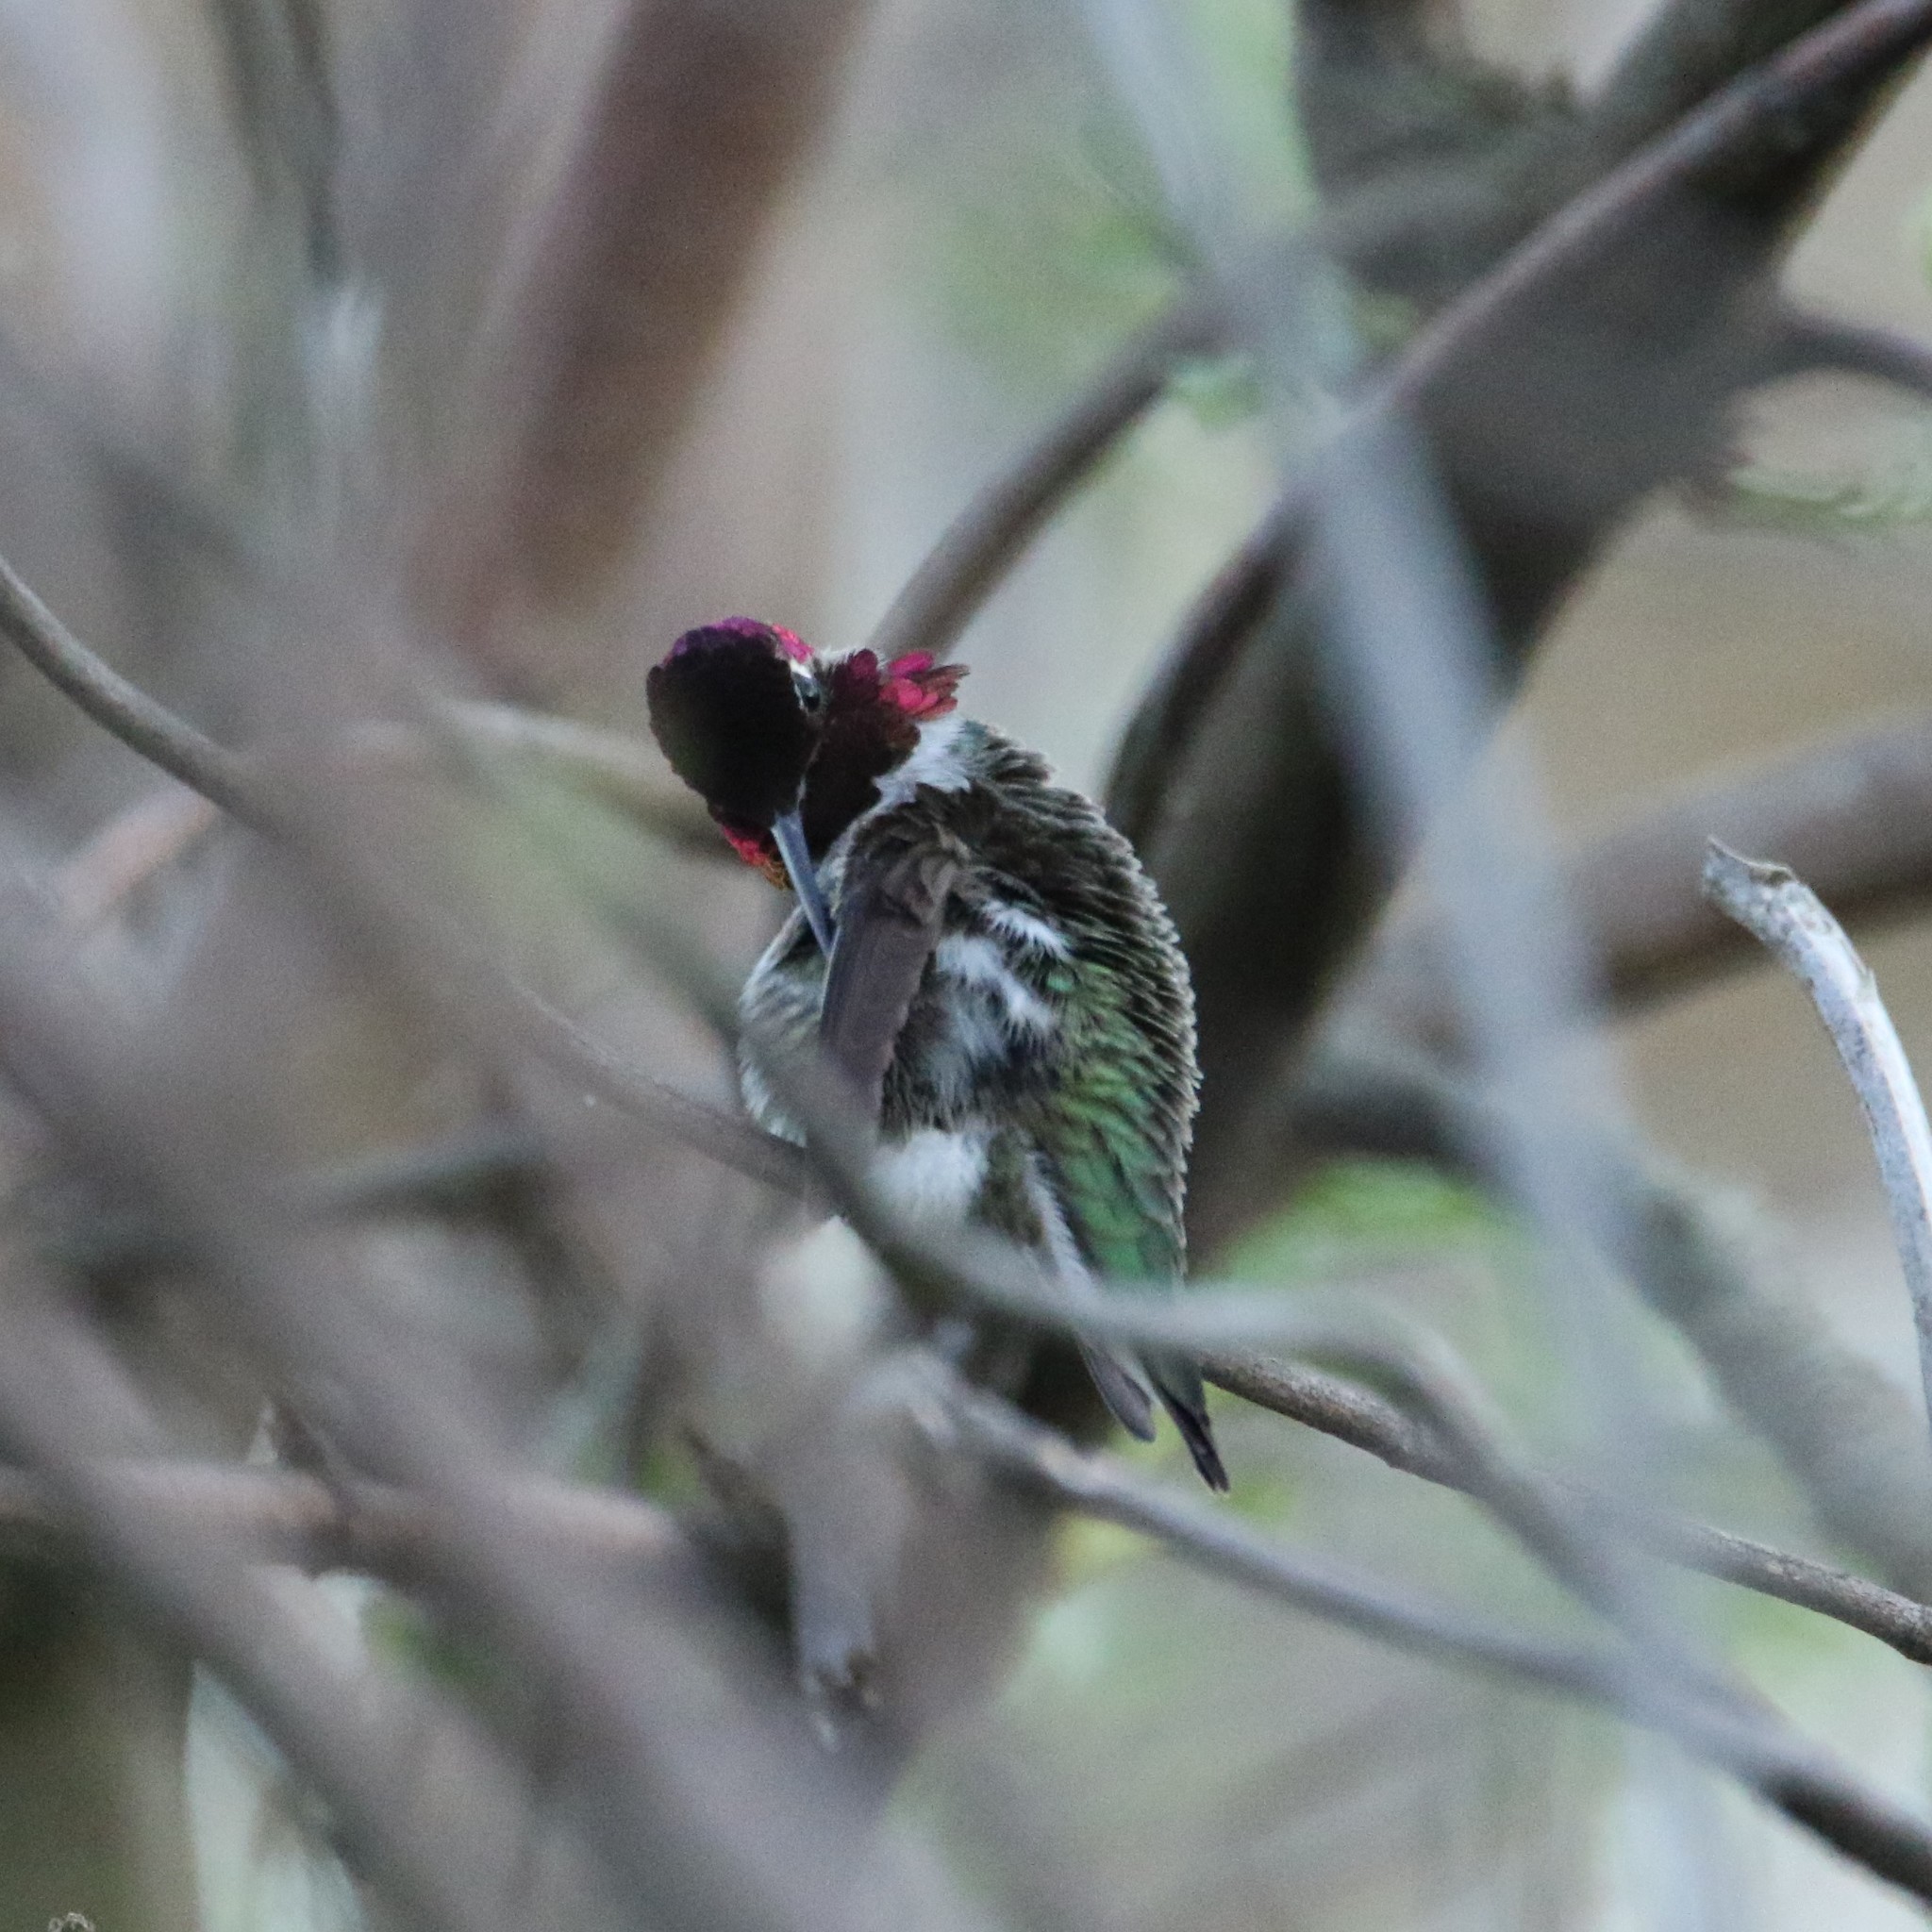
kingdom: Animalia
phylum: Chordata
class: Aves
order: Apodiformes
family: Trochilidae
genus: Calypte
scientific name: Calypte anna
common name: Anna's hummingbird
